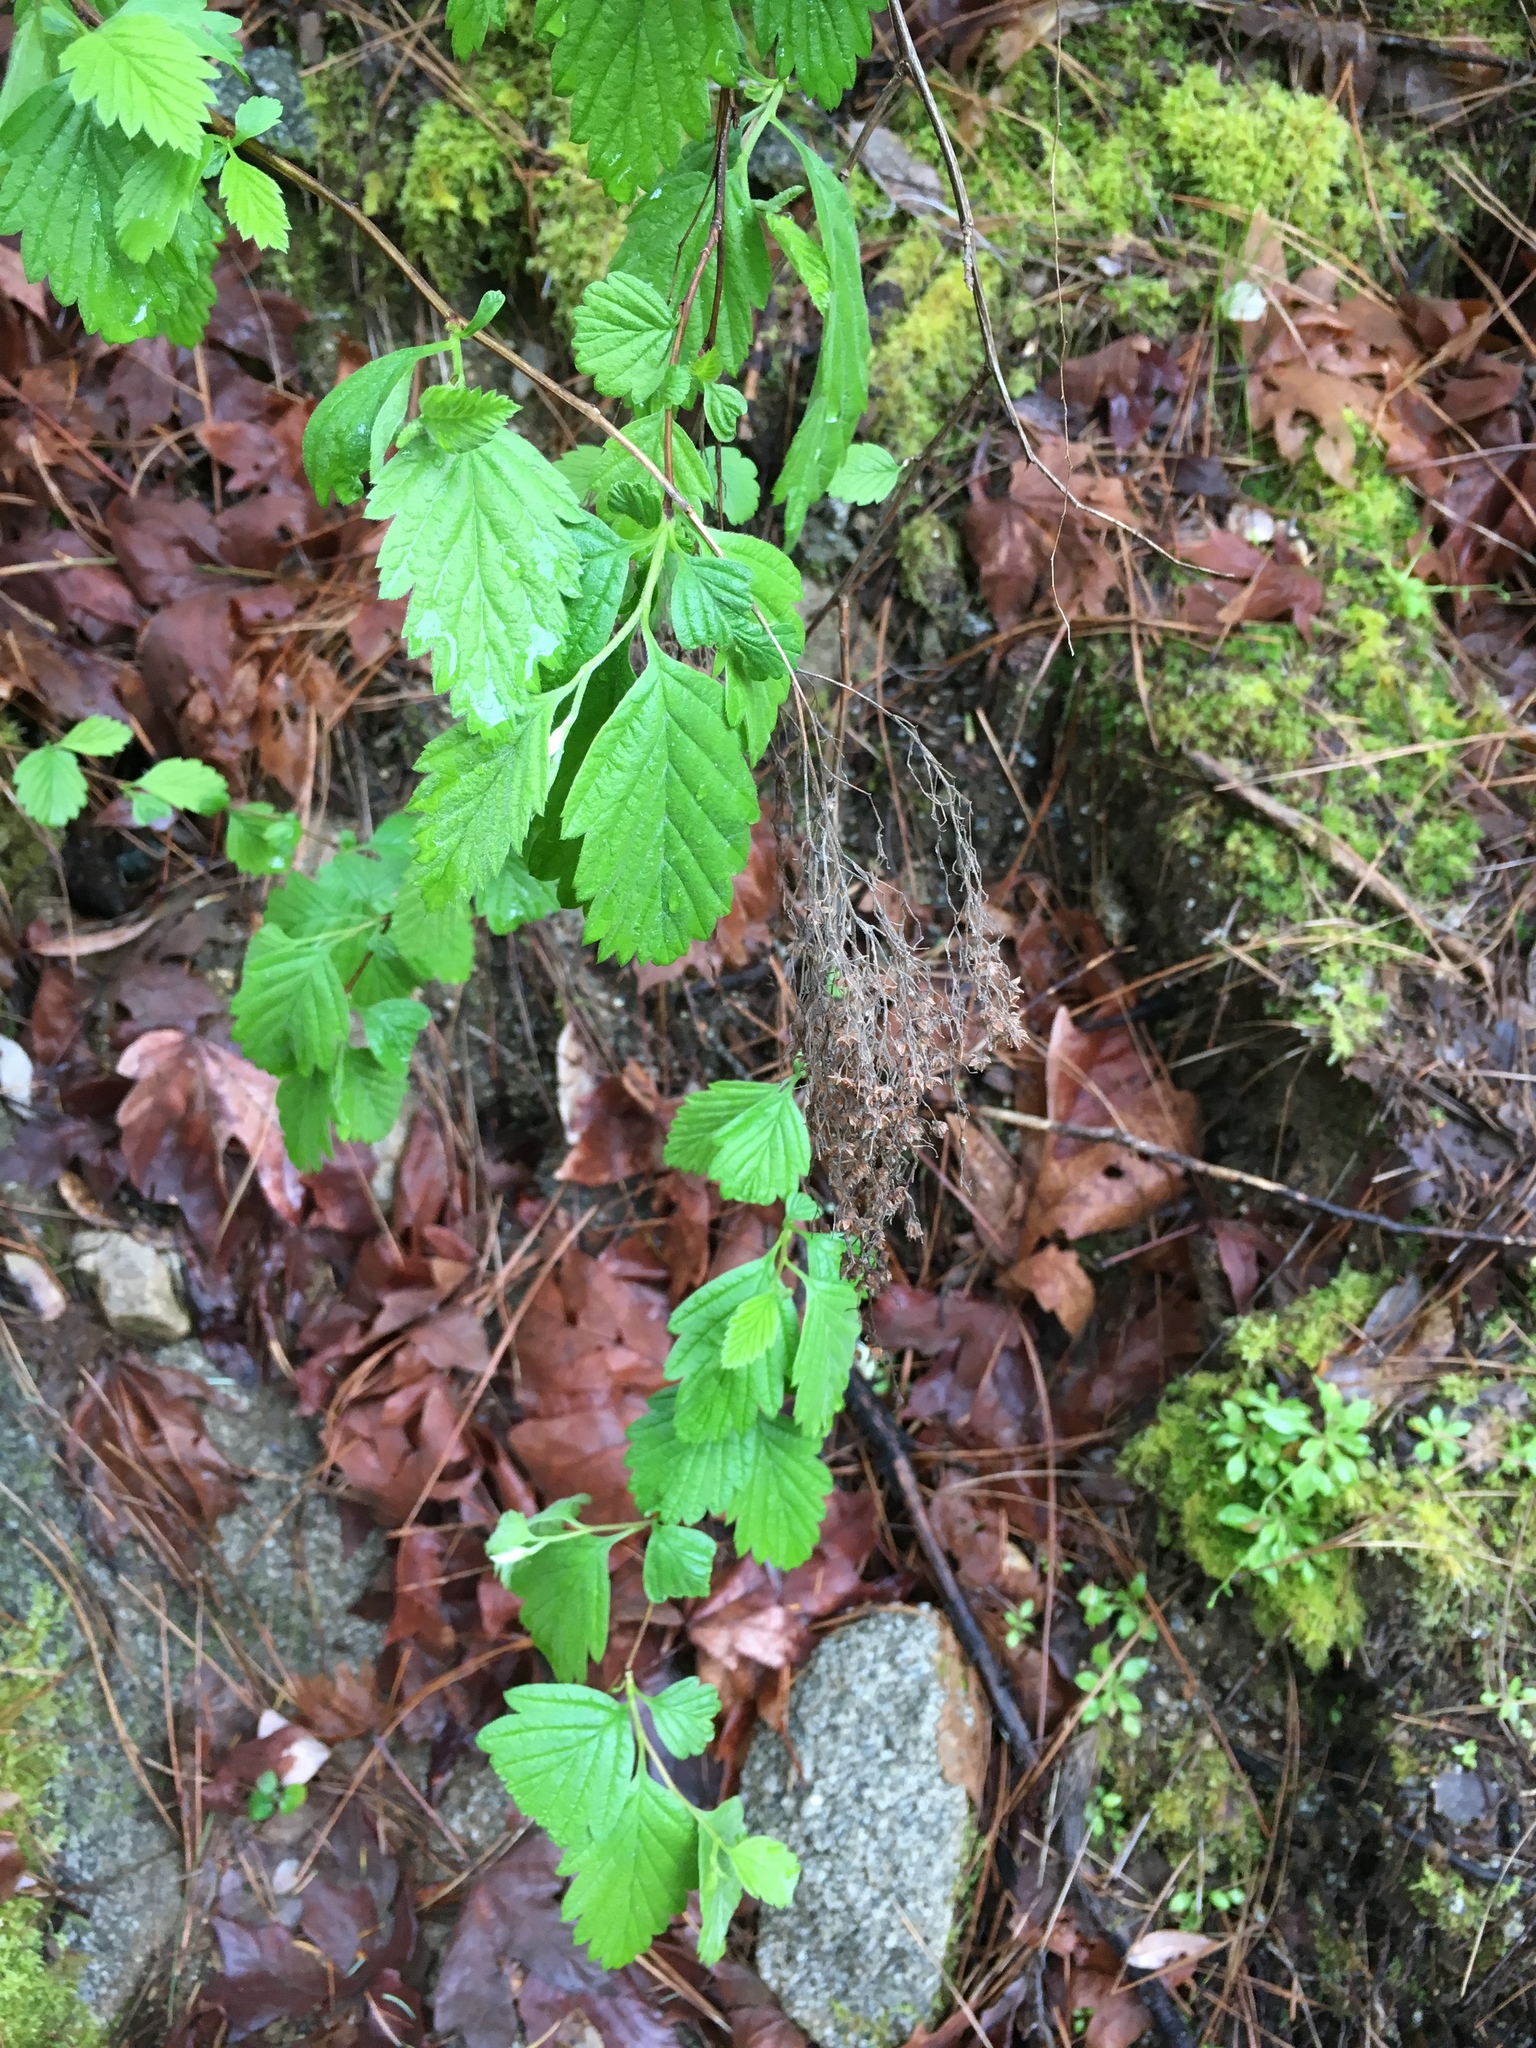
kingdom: Plantae
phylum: Tracheophyta
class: Magnoliopsida
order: Rosales
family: Rosaceae
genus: Holodiscus
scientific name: Holodiscus discolor
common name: Oceanspray
